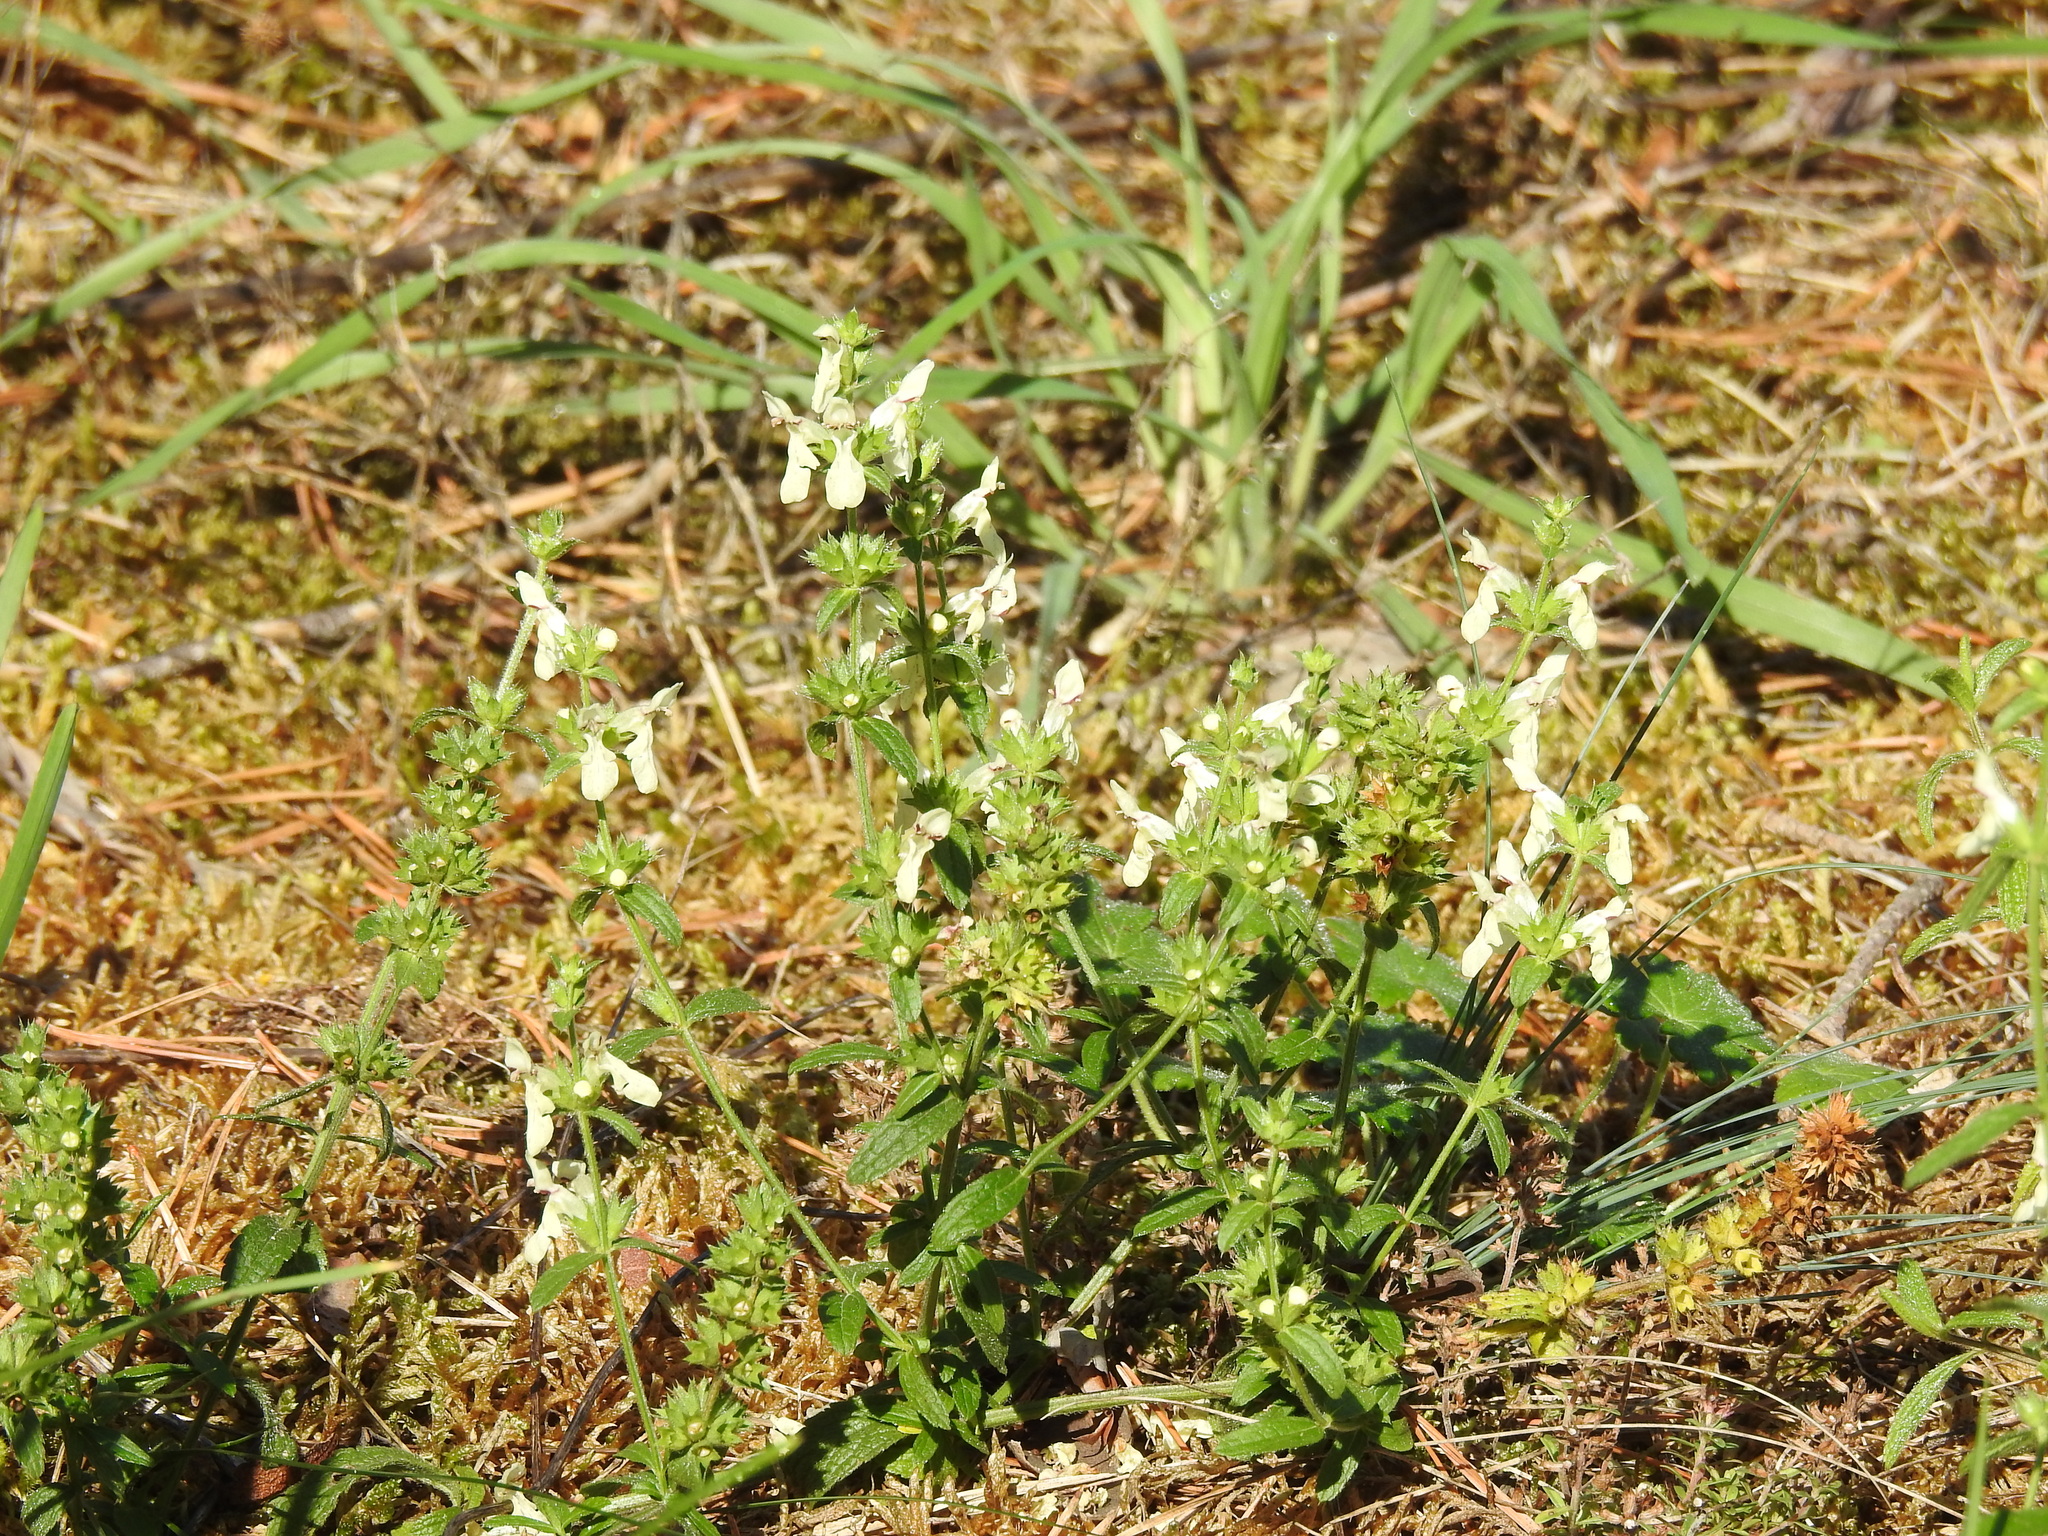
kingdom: Plantae
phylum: Tracheophyta
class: Magnoliopsida
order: Lamiales
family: Lamiaceae
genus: Stachys
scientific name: Stachys recta
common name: Perennial yellow-woundwort
